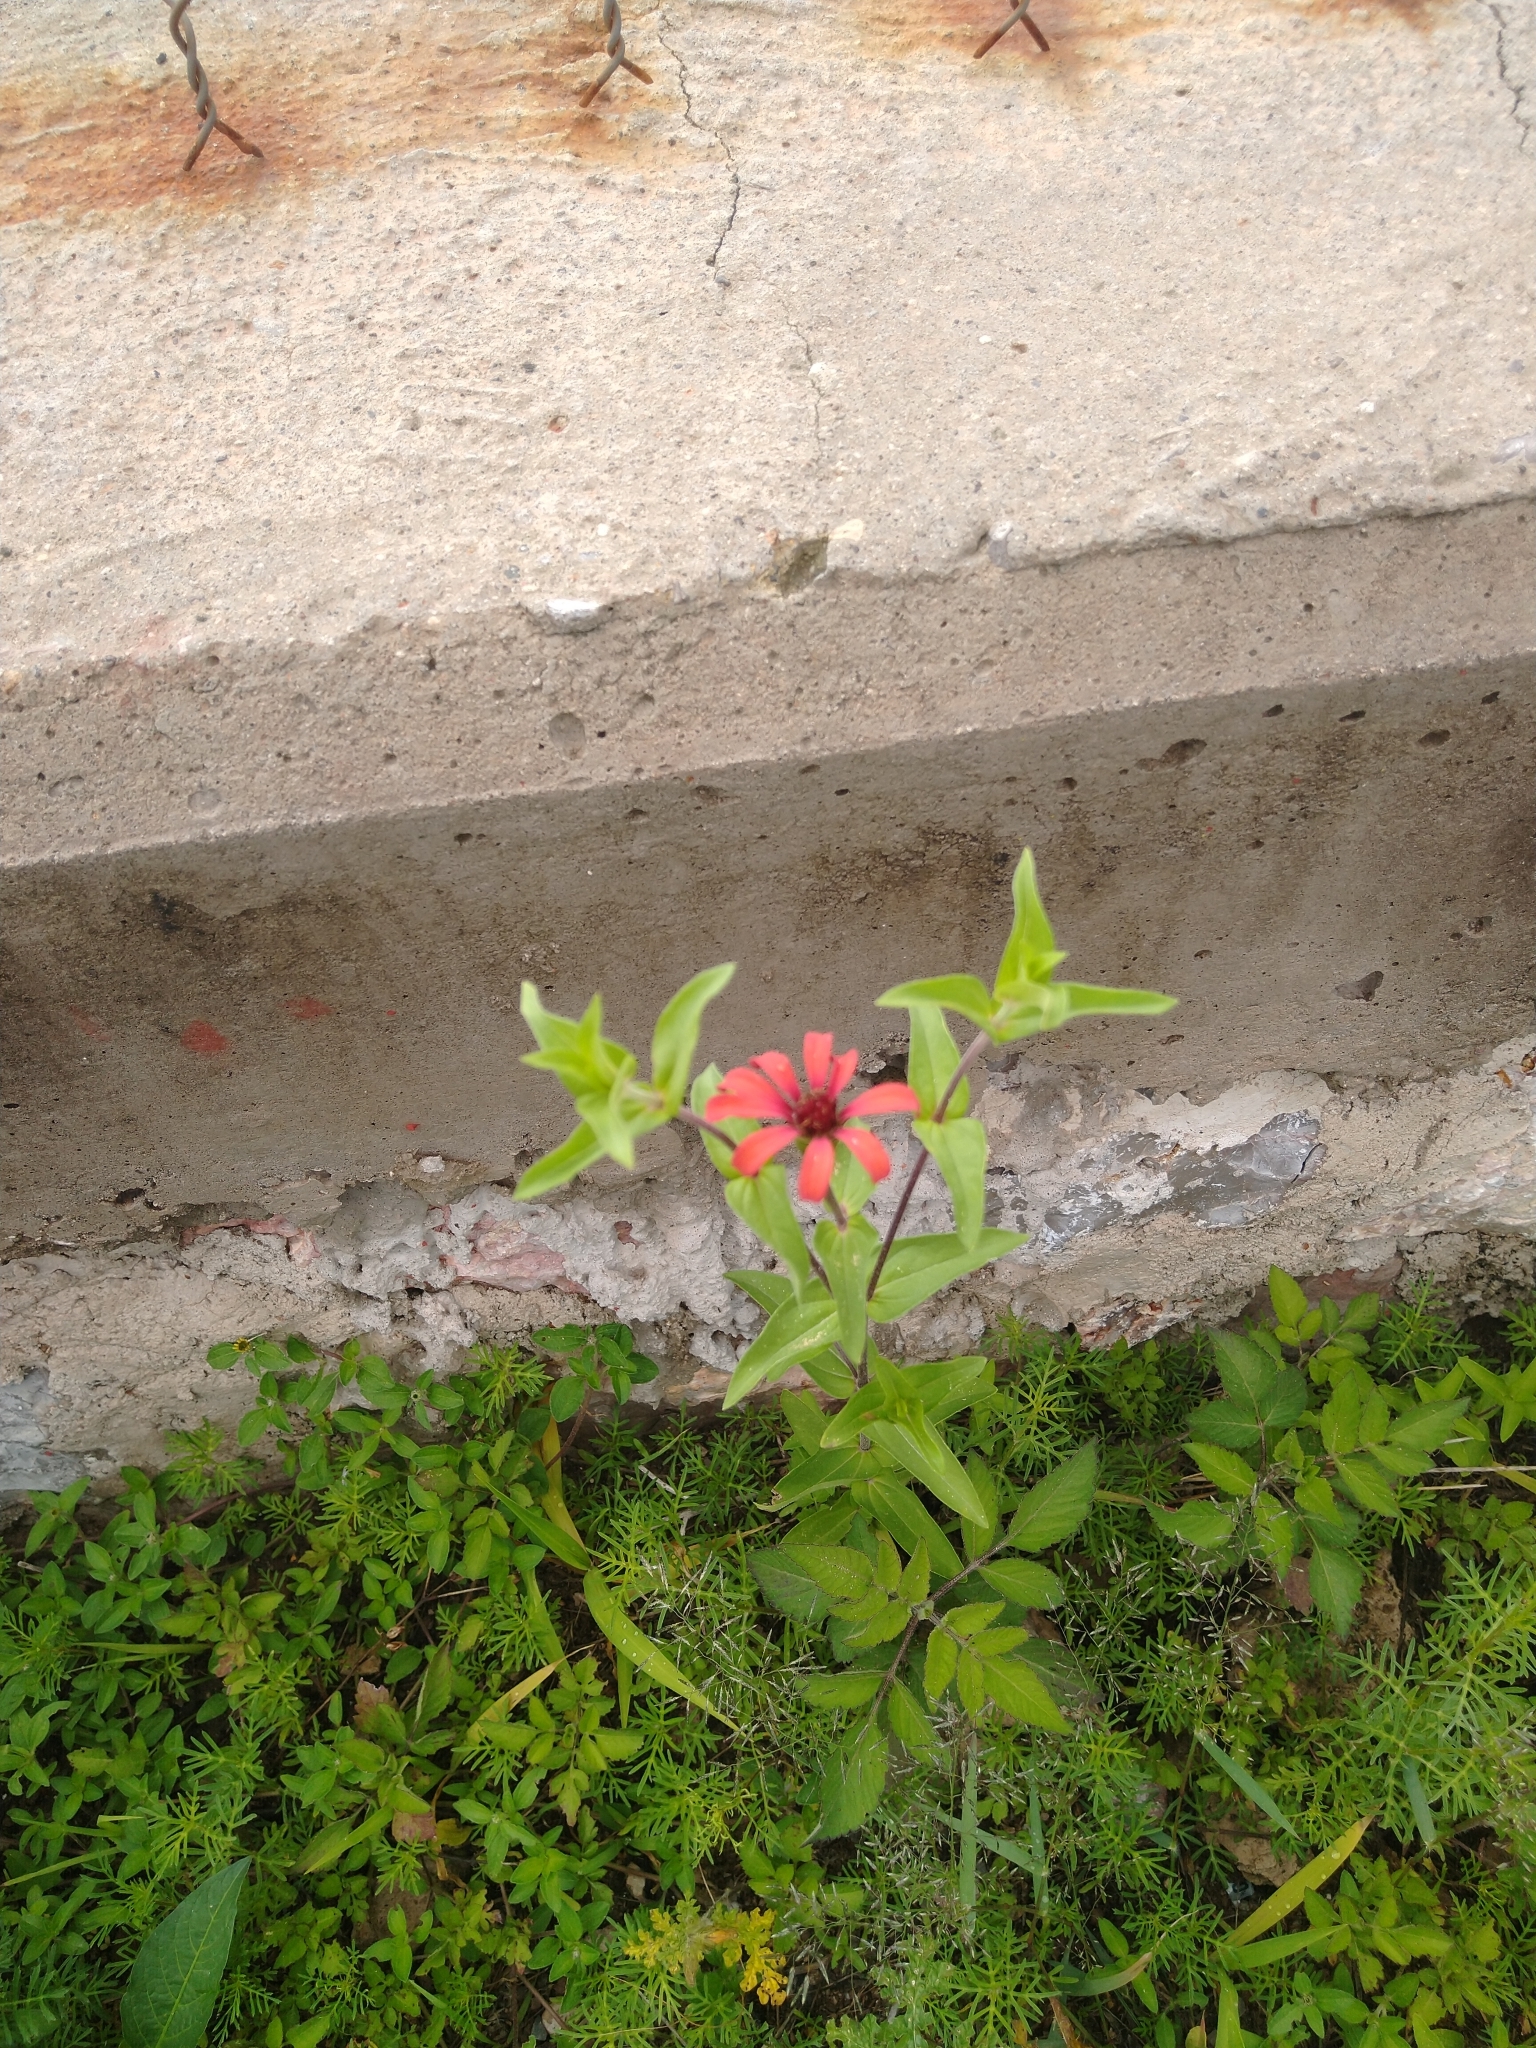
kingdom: Plantae
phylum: Tracheophyta
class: Magnoliopsida
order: Asterales
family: Asteraceae
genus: Zinnia
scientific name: Zinnia peruviana
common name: Peruvian zinnia
